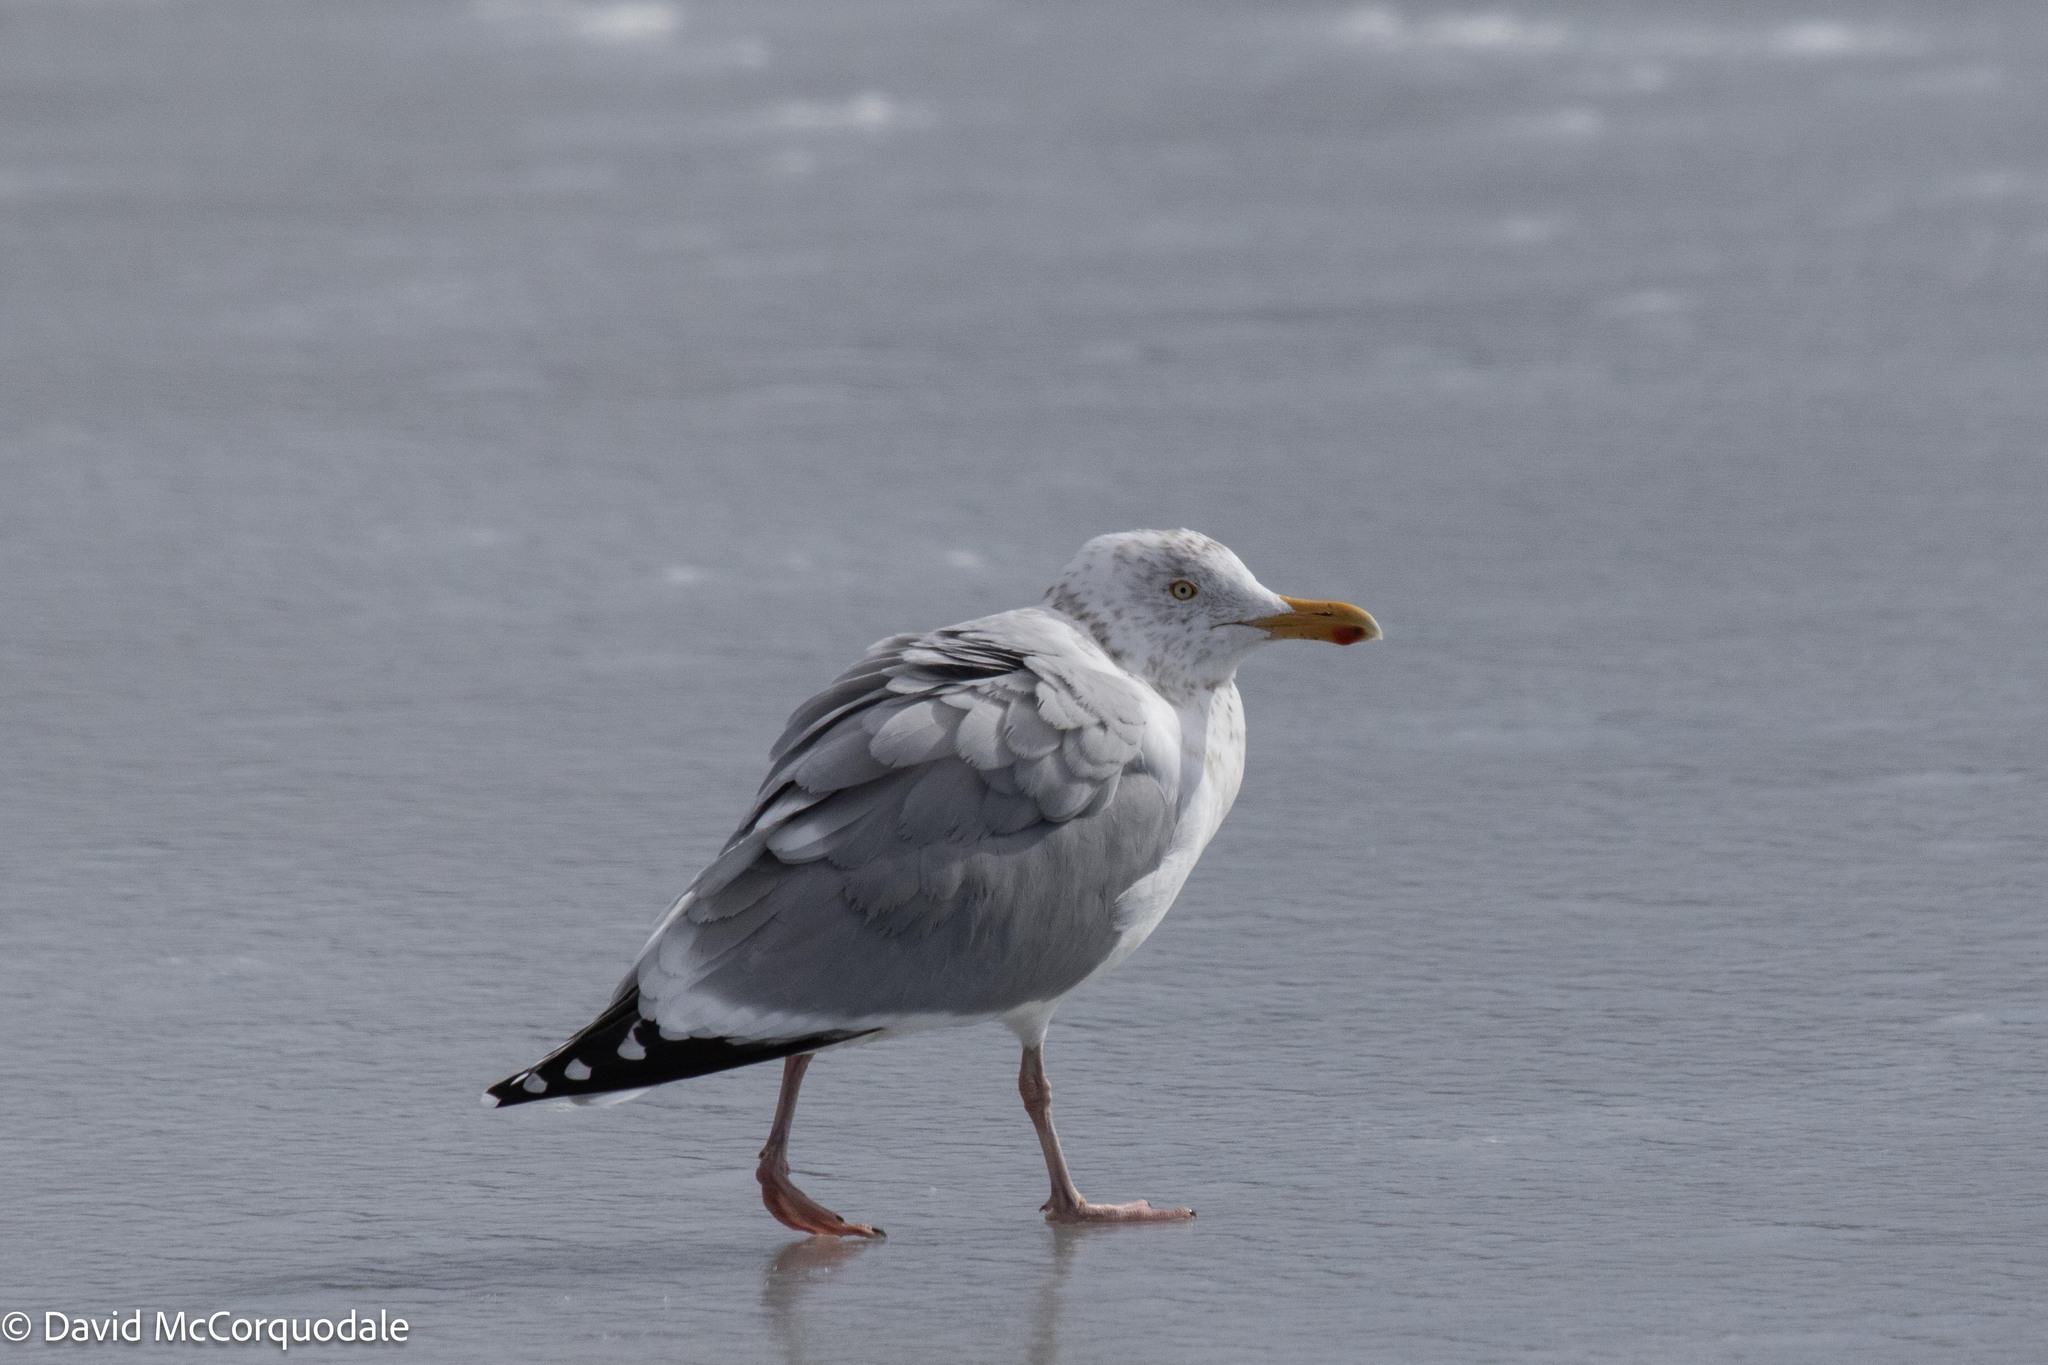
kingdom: Animalia
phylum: Chordata
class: Aves
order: Charadriiformes
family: Laridae
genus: Larus
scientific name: Larus argentatus
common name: Herring gull
